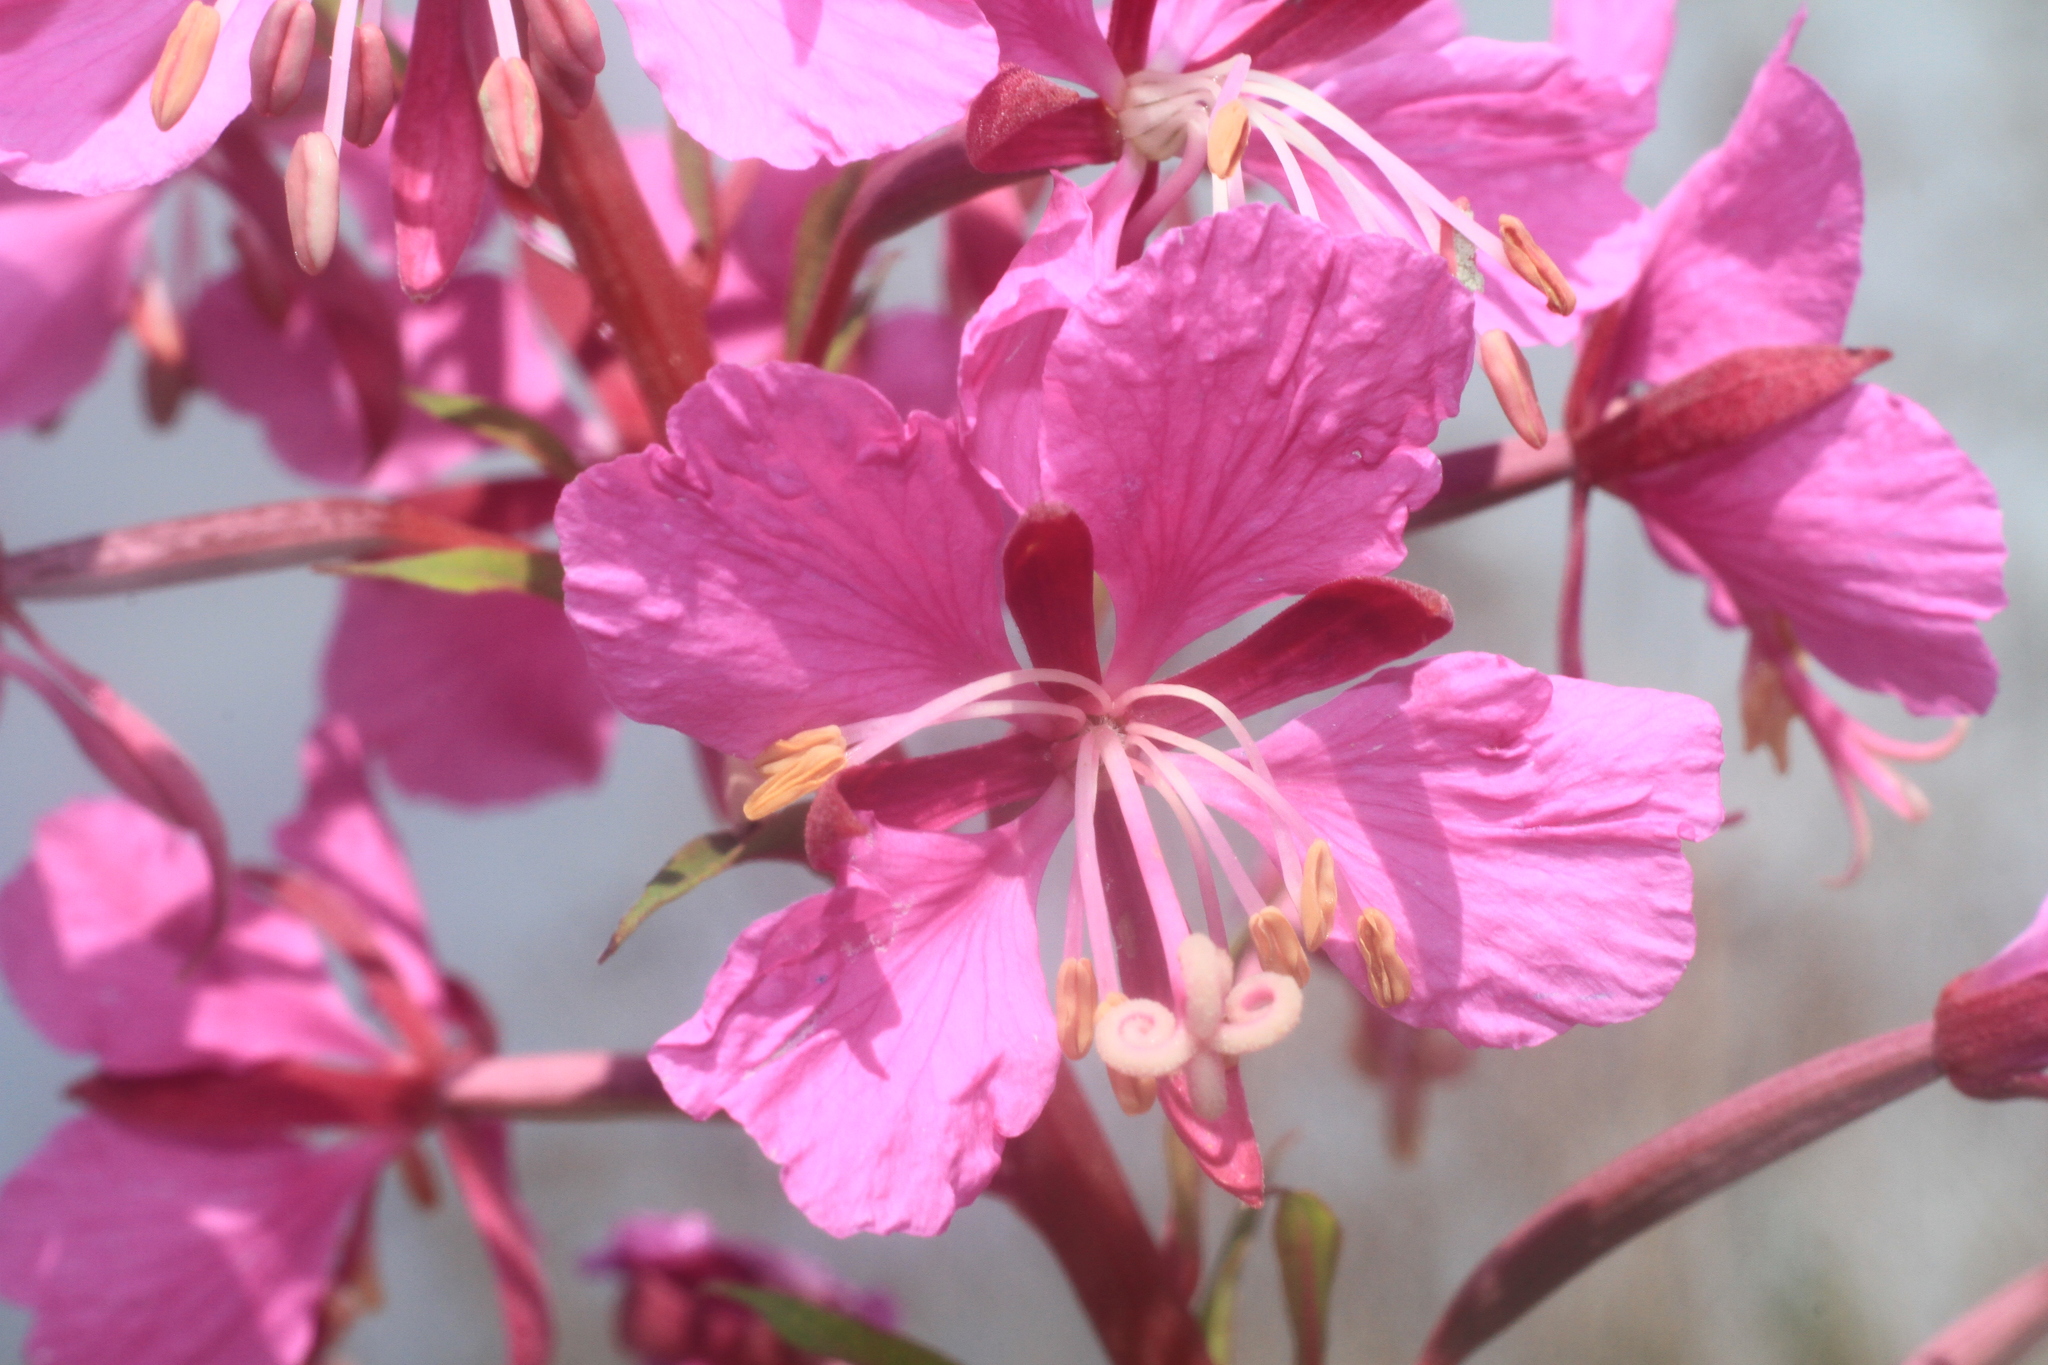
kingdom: Plantae
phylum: Tracheophyta
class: Magnoliopsida
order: Myrtales
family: Onagraceae
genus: Chamaenerion
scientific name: Chamaenerion angustifolium
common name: Fireweed
